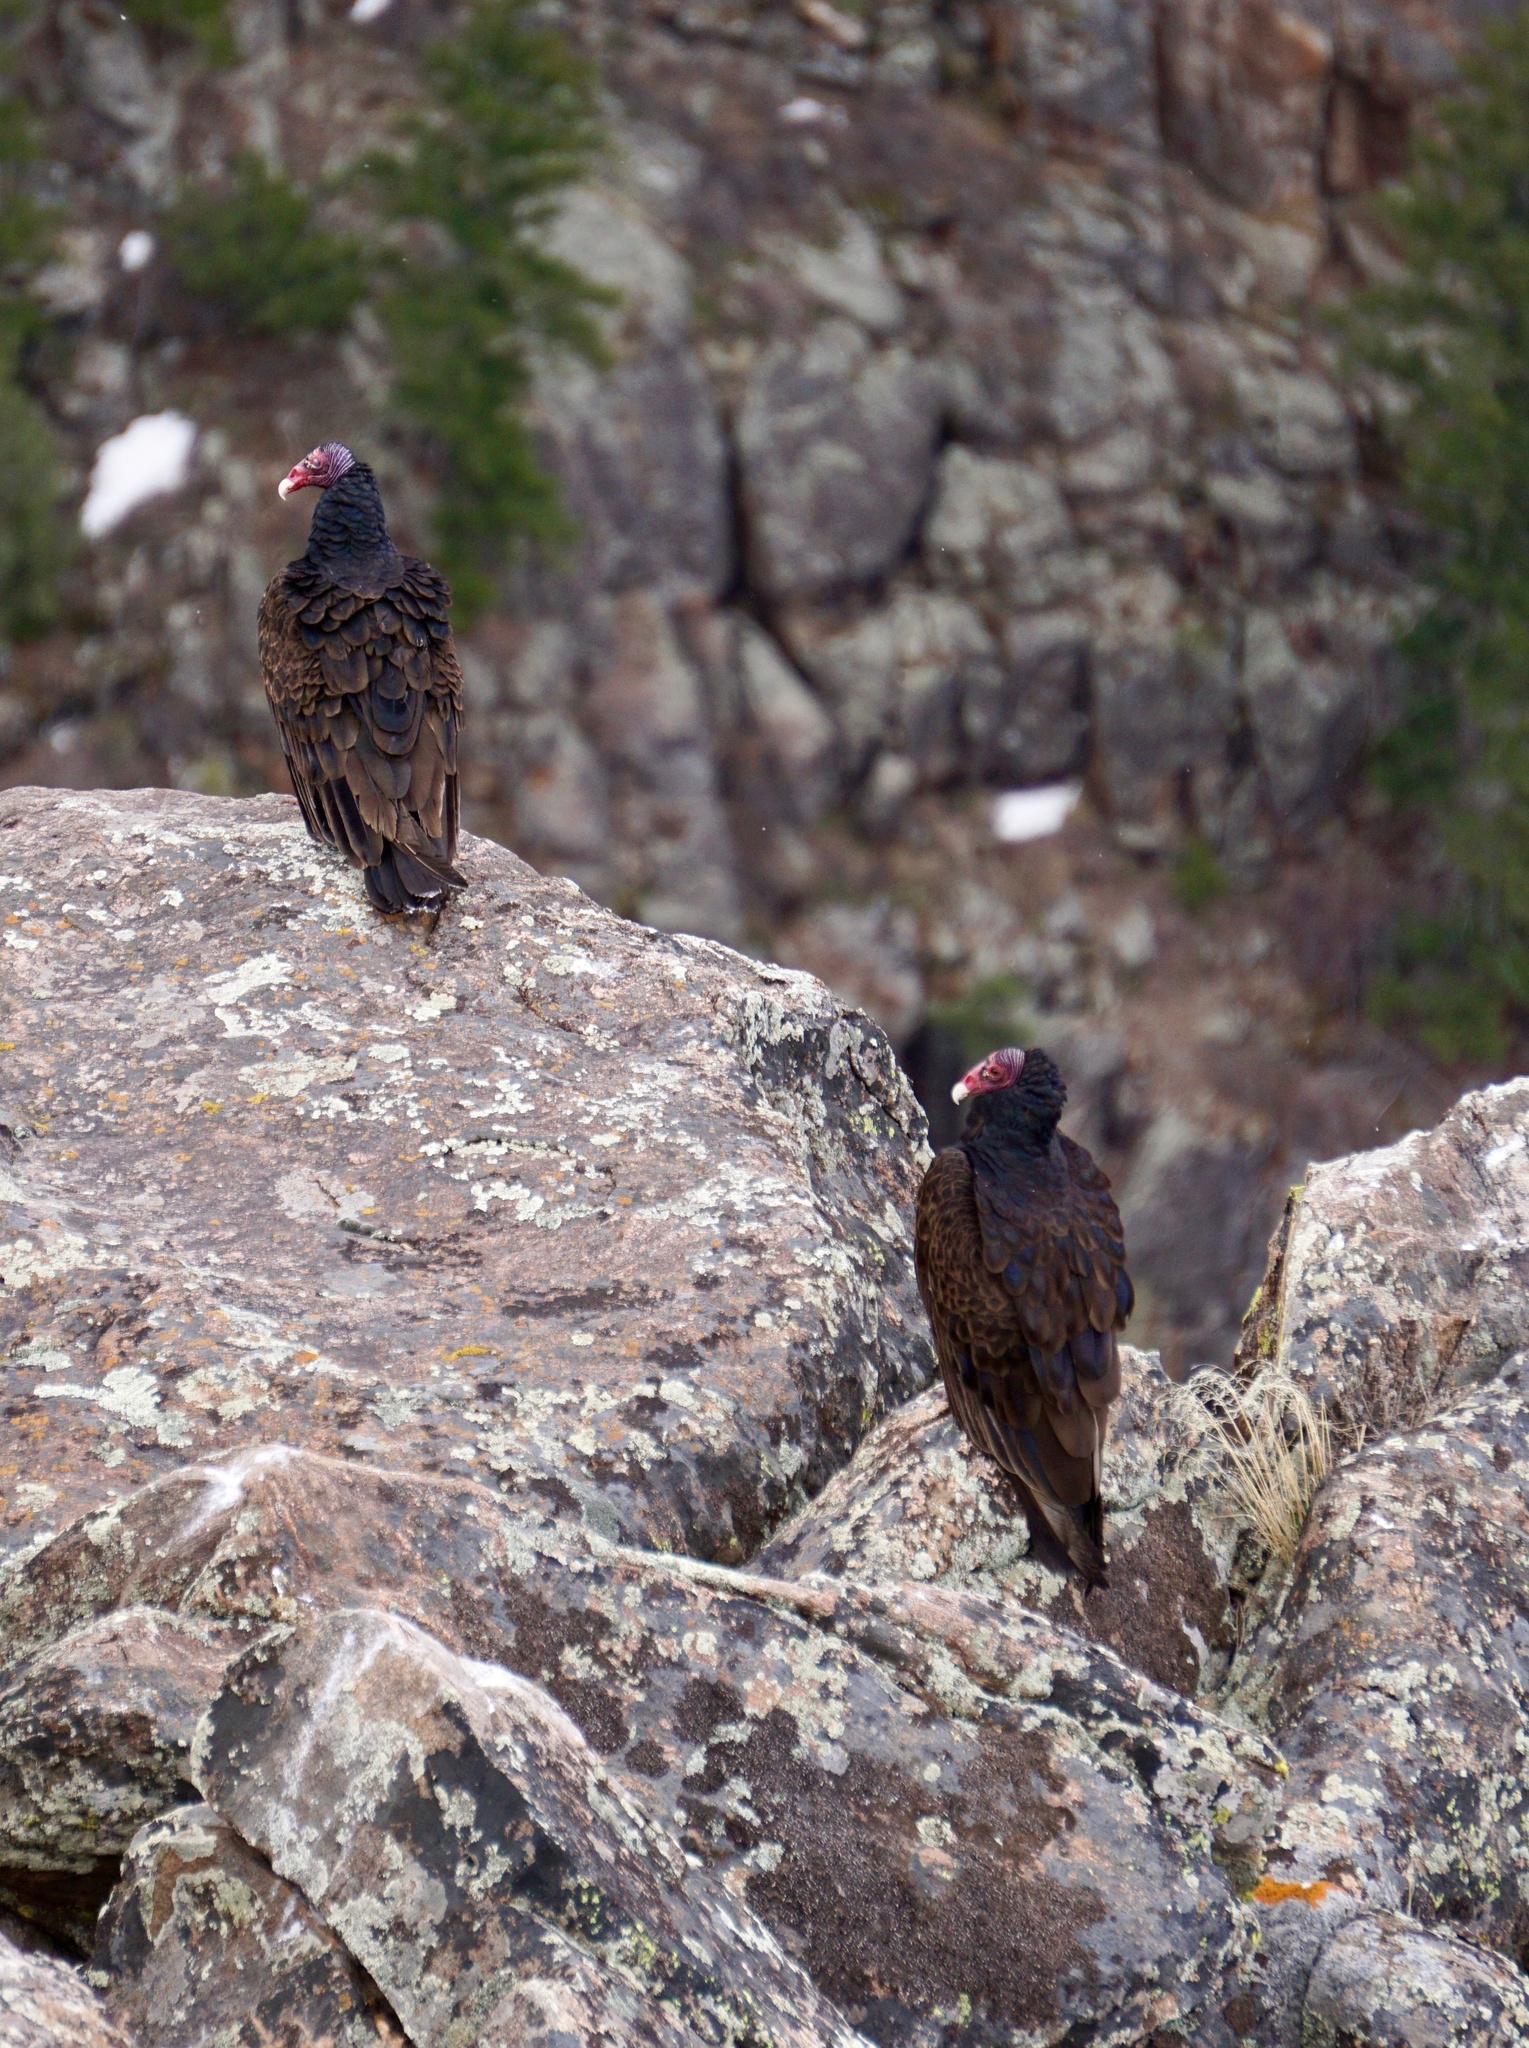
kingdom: Animalia
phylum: Chordata
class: Aves
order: Accipitriformes
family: Cathartidae
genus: Cathartes
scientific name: Cathartes aura
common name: Turkey vulture
